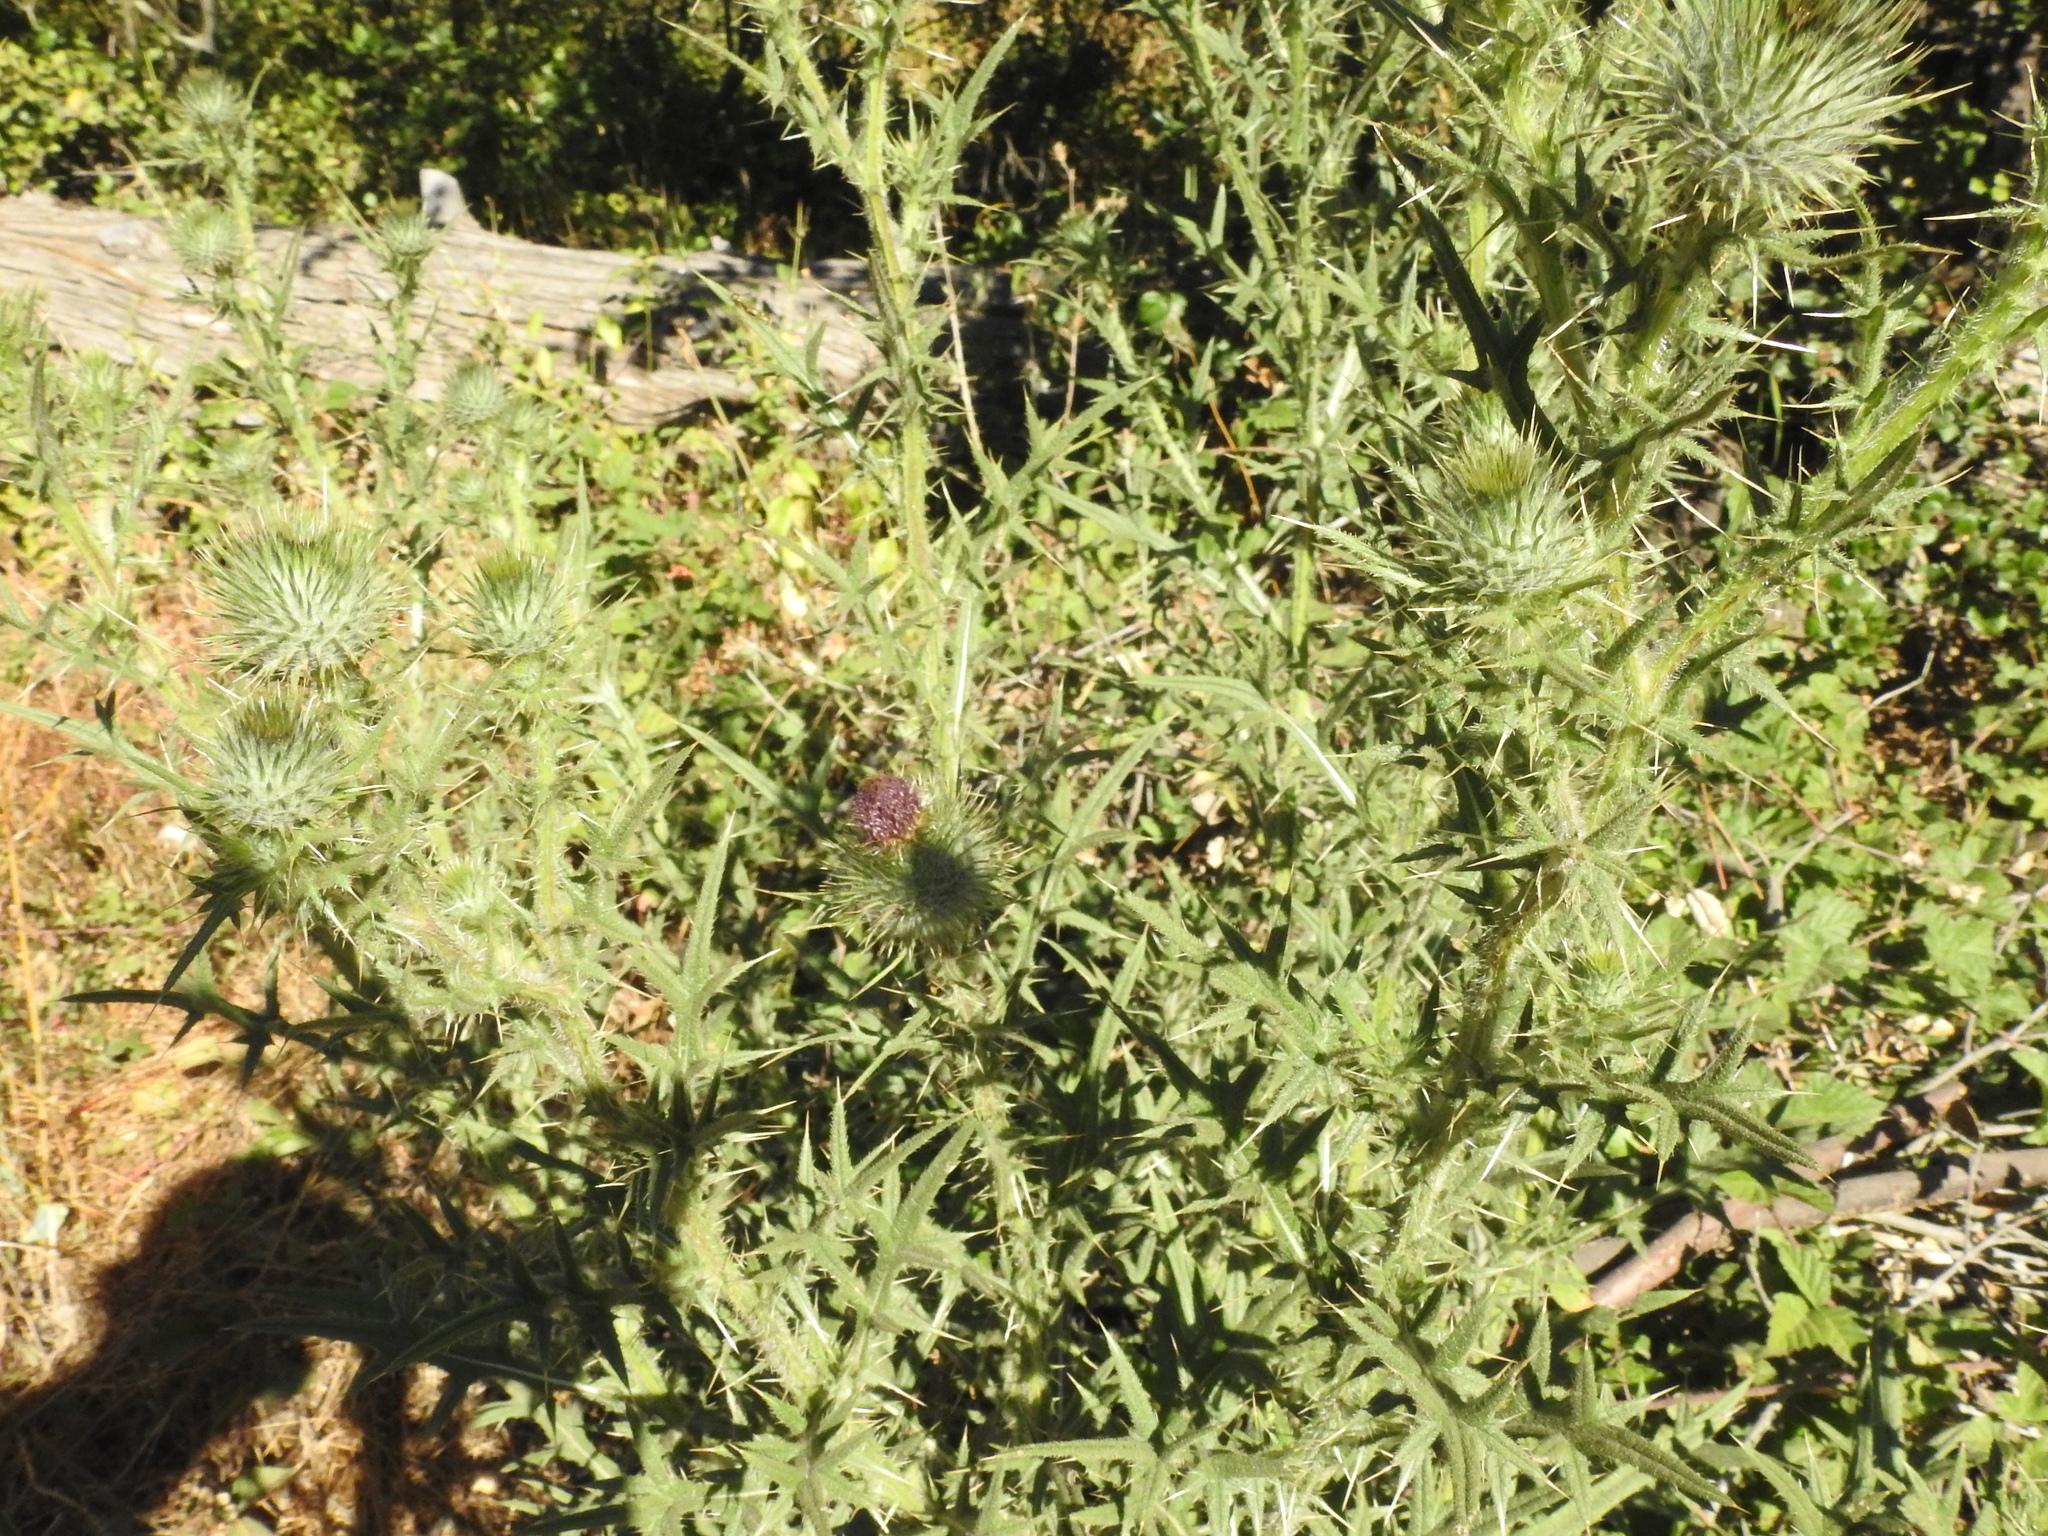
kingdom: Plantae
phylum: Tracheophyta
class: Magnoliopsida
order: Asterales
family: Asteraceae
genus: Cirsium
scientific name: Cirsium vulgare
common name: Bull thistle
